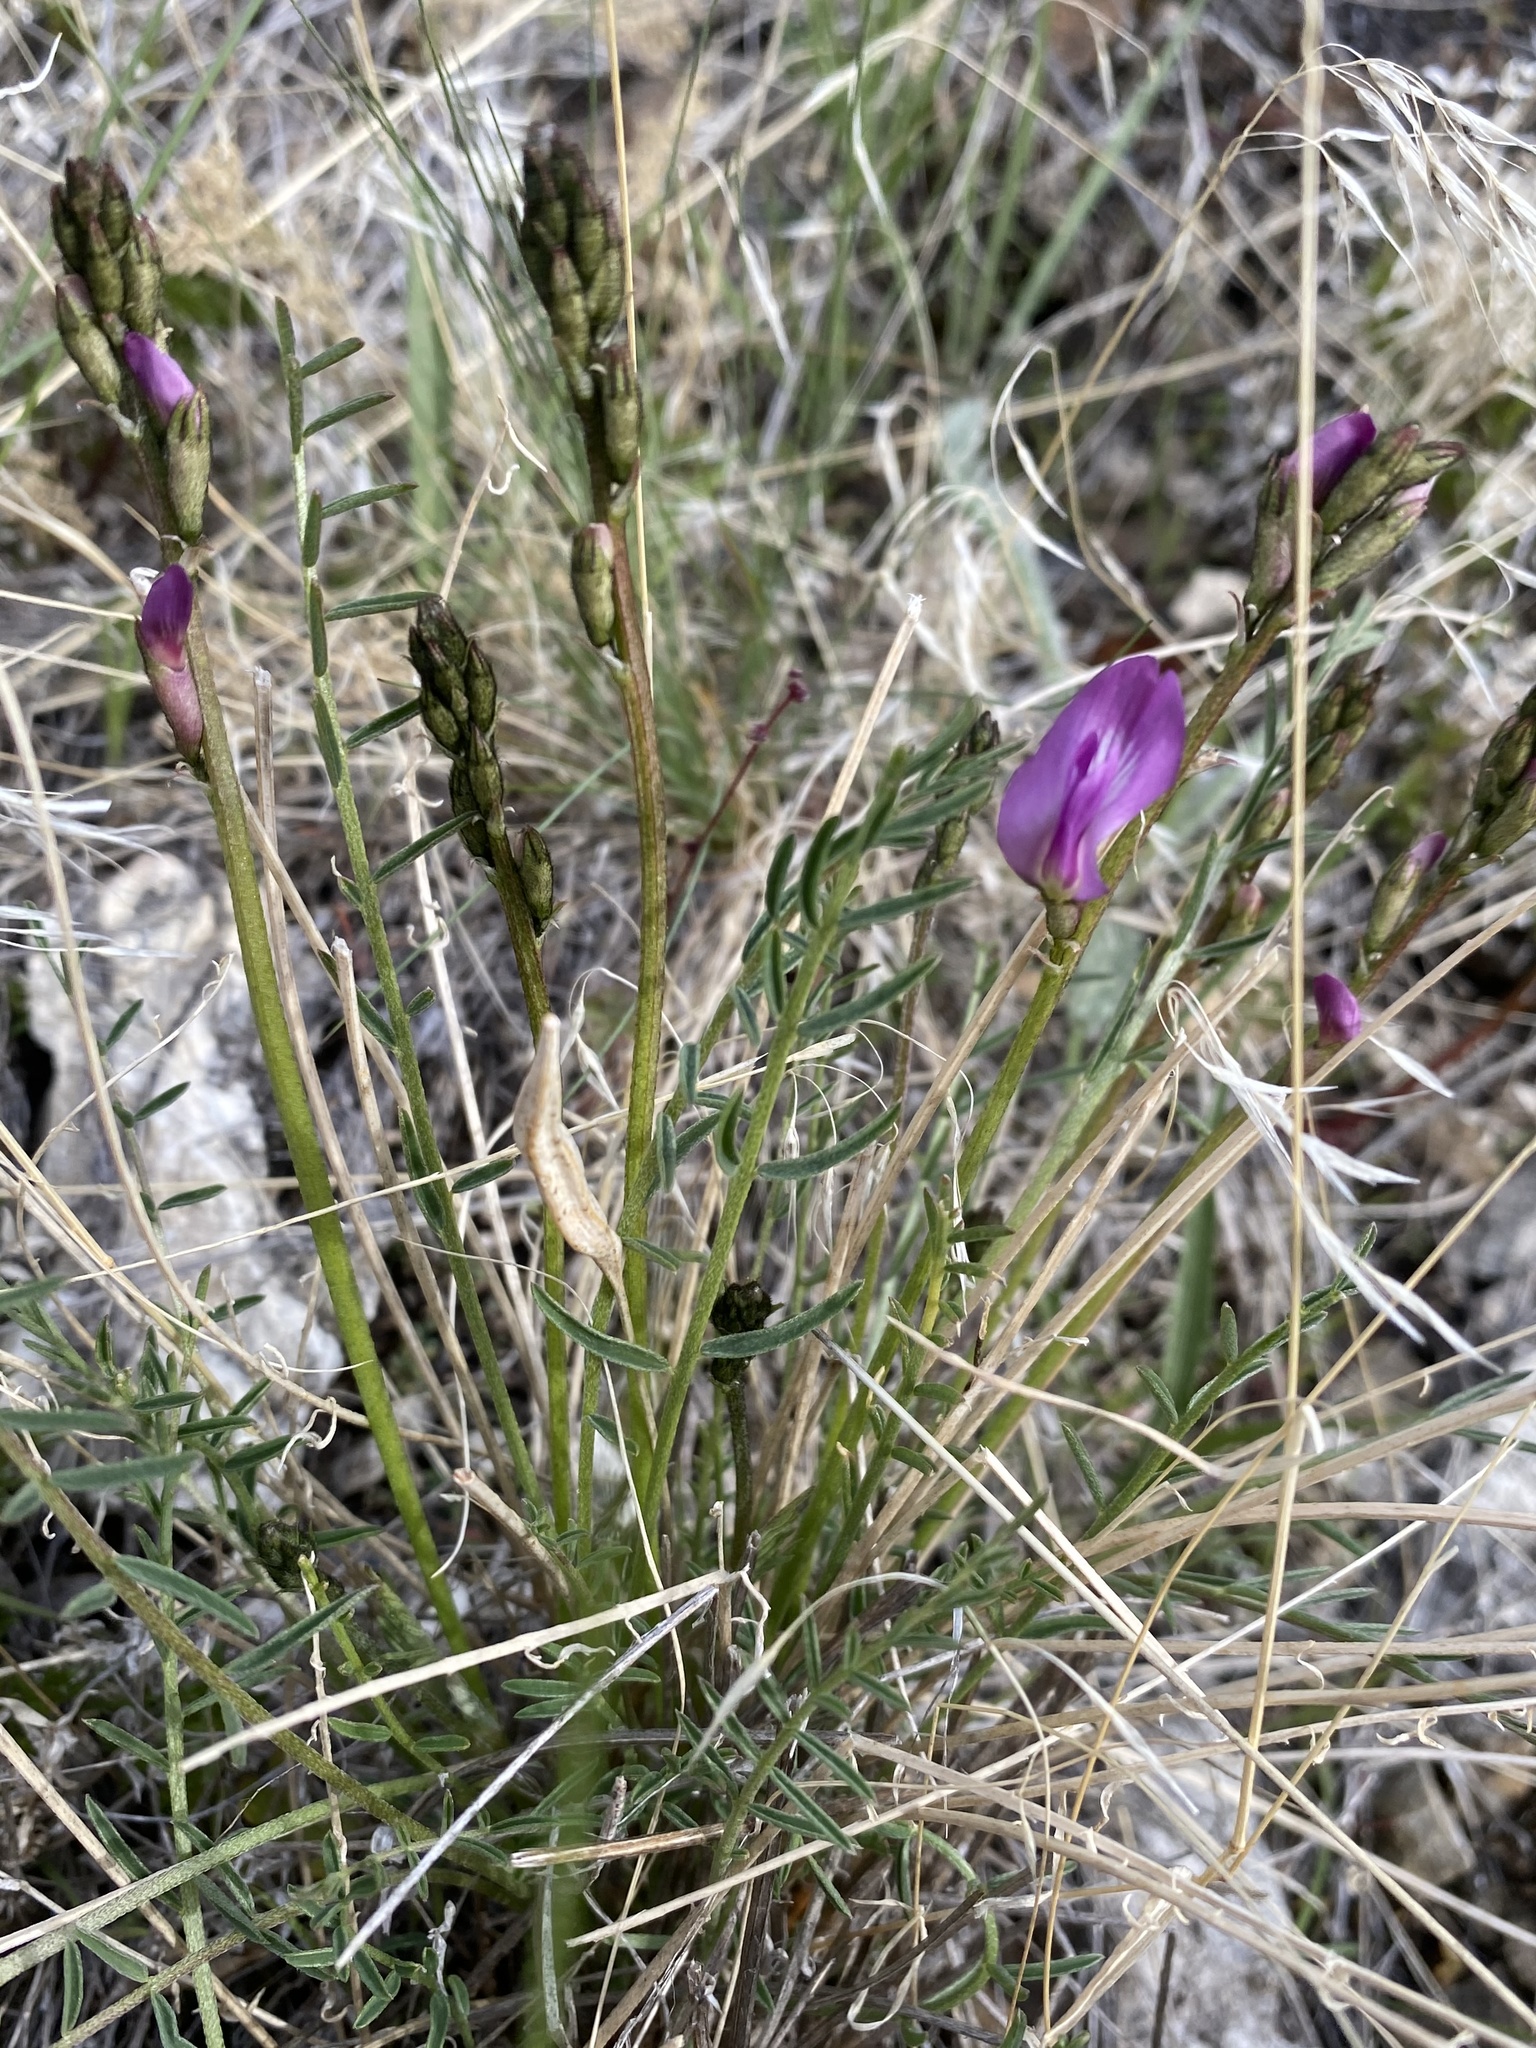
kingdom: Plantae
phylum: Tracheophyta
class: Magnoliopsida
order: Fabales
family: Fabaceae
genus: Astragalus
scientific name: Astragalus conjunctus
